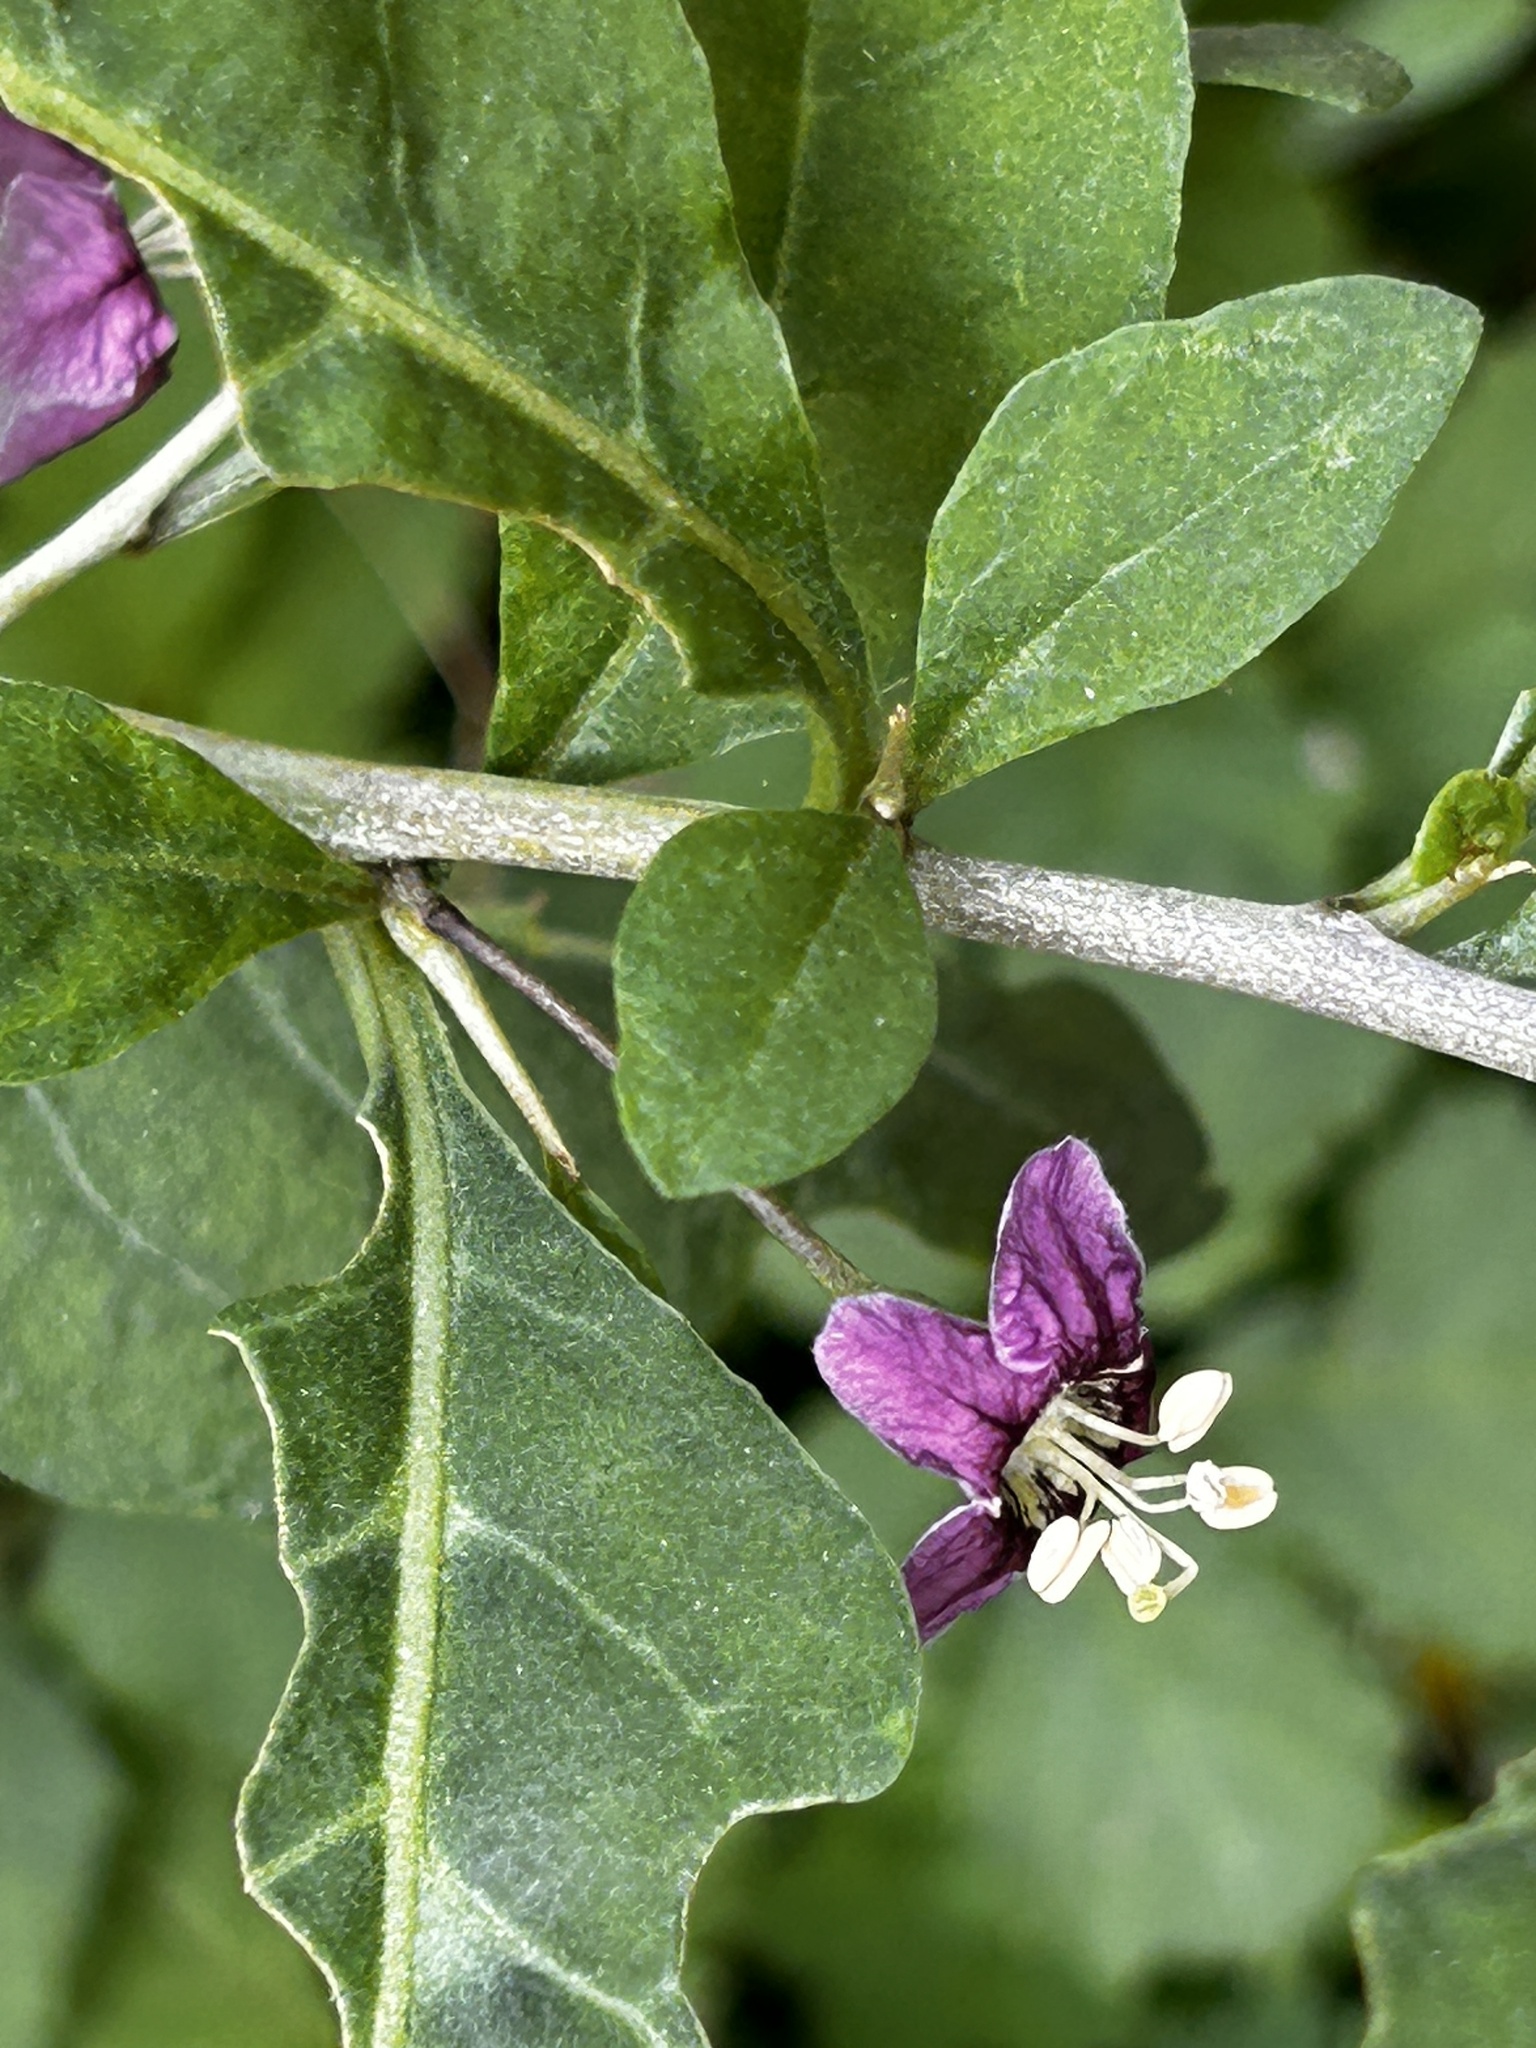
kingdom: Plantae
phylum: Tracheophyta
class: Magnoliopsida
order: Solanales
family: Solanaceae
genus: Lycium
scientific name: Lycium chinense
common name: Chinese teaplant
